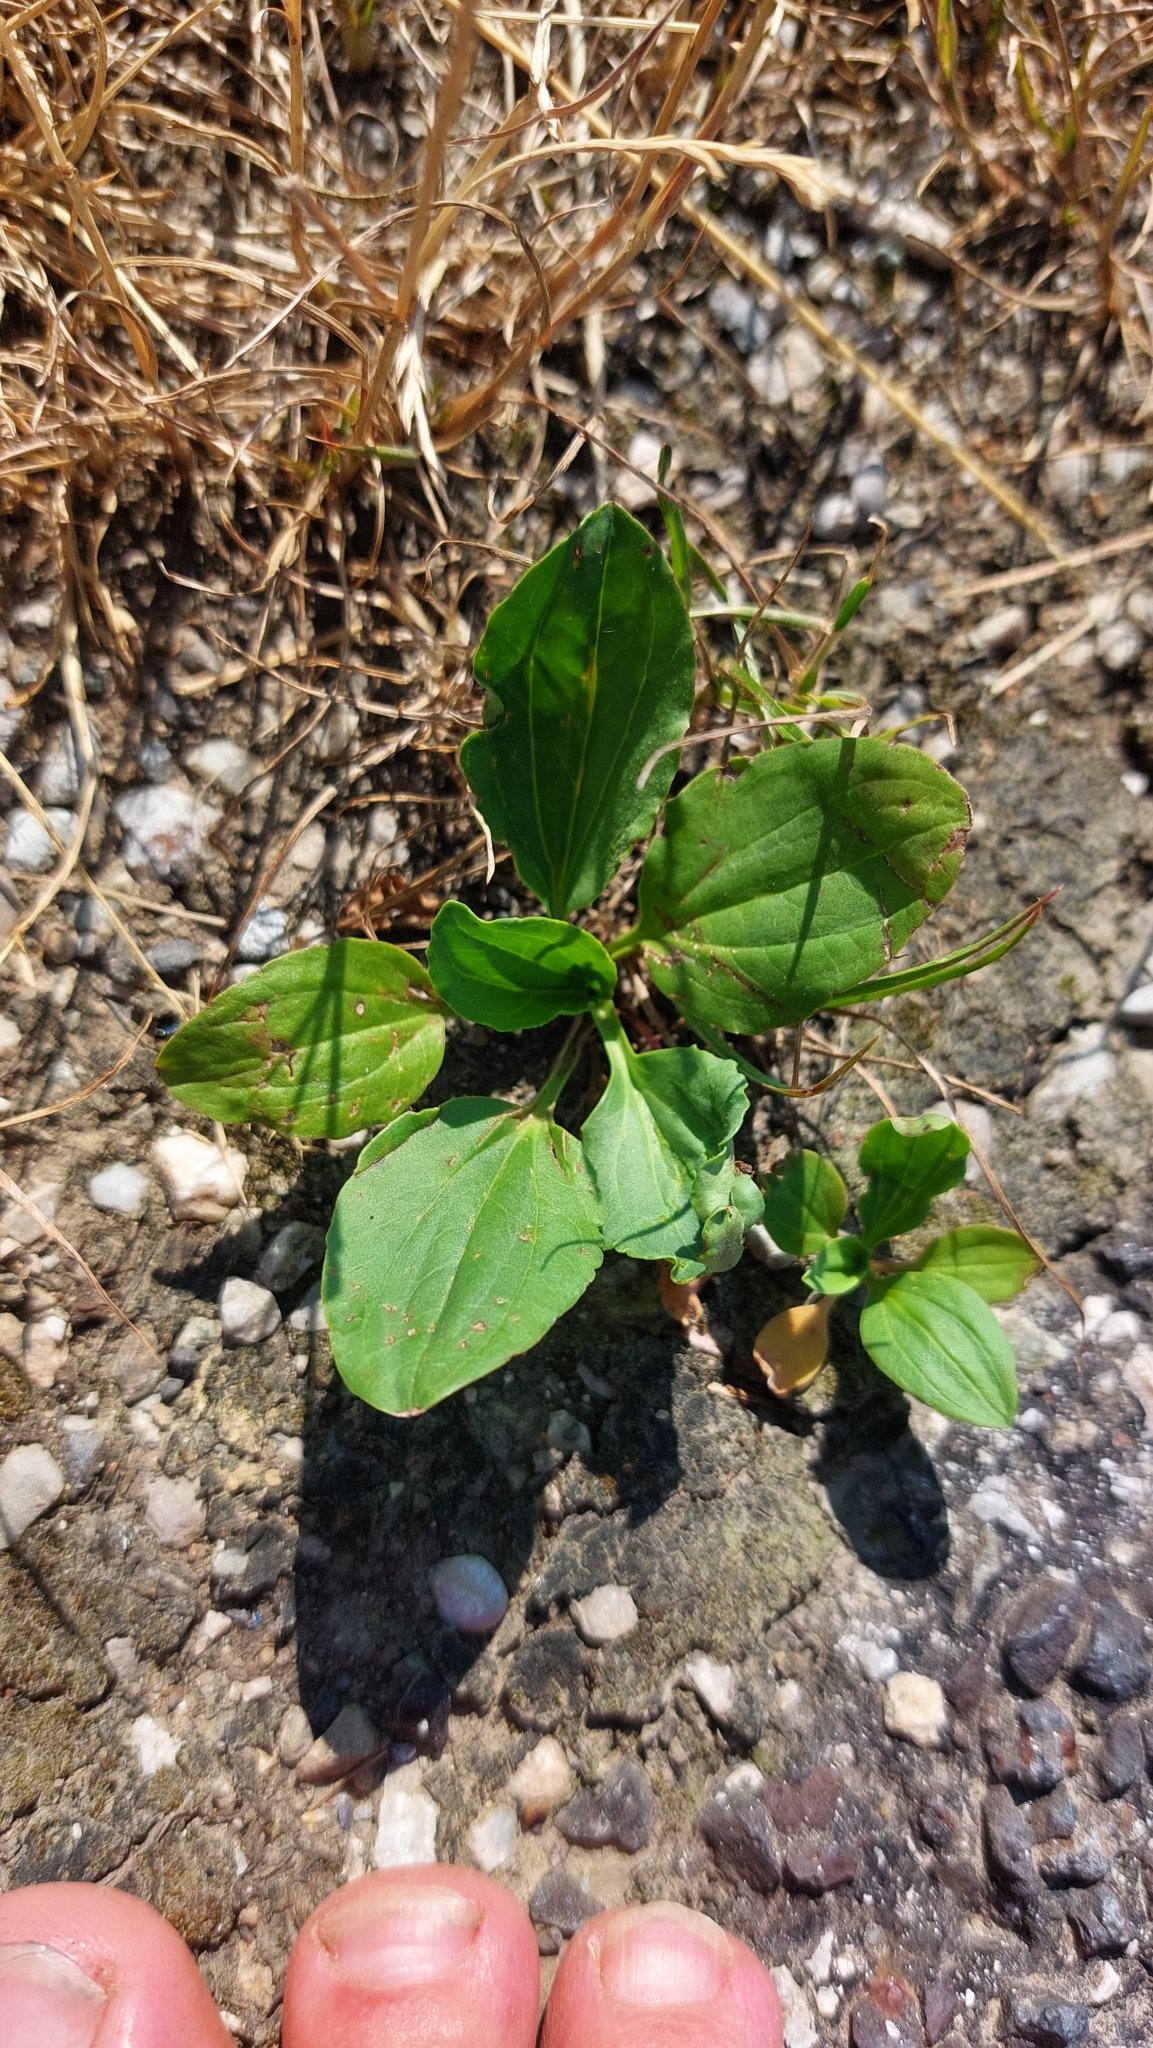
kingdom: Plantae
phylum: Tracheophyta
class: Magnoliopsida
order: Lamiales
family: Plantaginaceae
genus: Plantago
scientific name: Plantago major
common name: Common plantain
